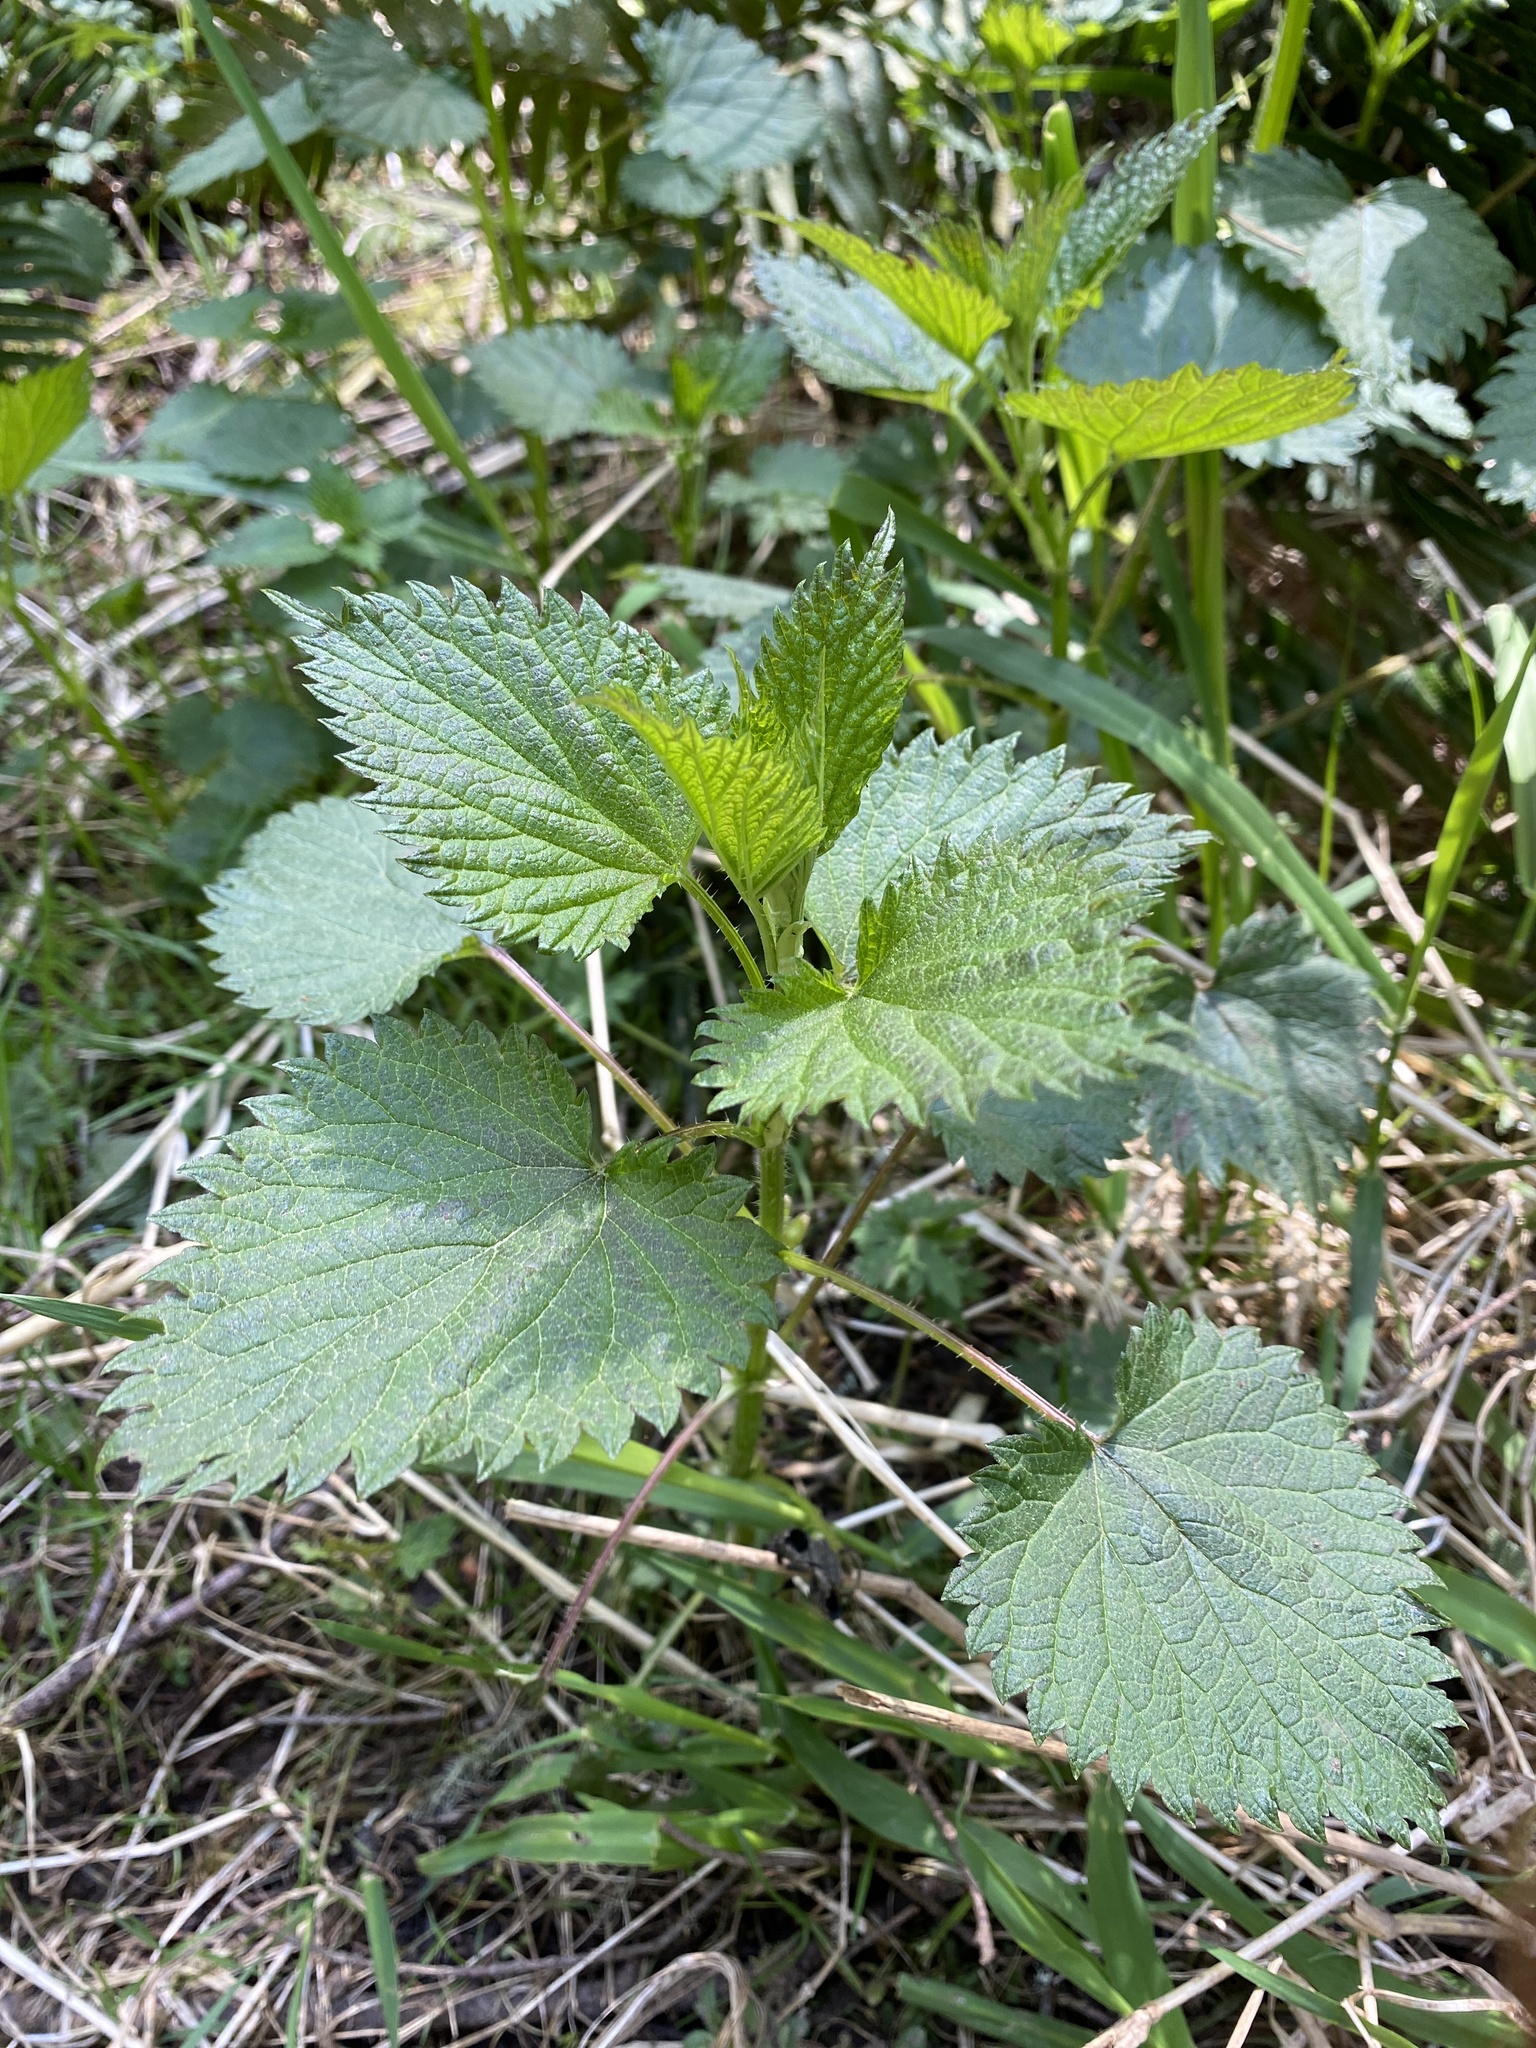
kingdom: Plantae
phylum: Tracheophyta
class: Magnoliopsida
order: Rosales
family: Urticaceae
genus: Urtica
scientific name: Urtica dioica
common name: Common nettle
